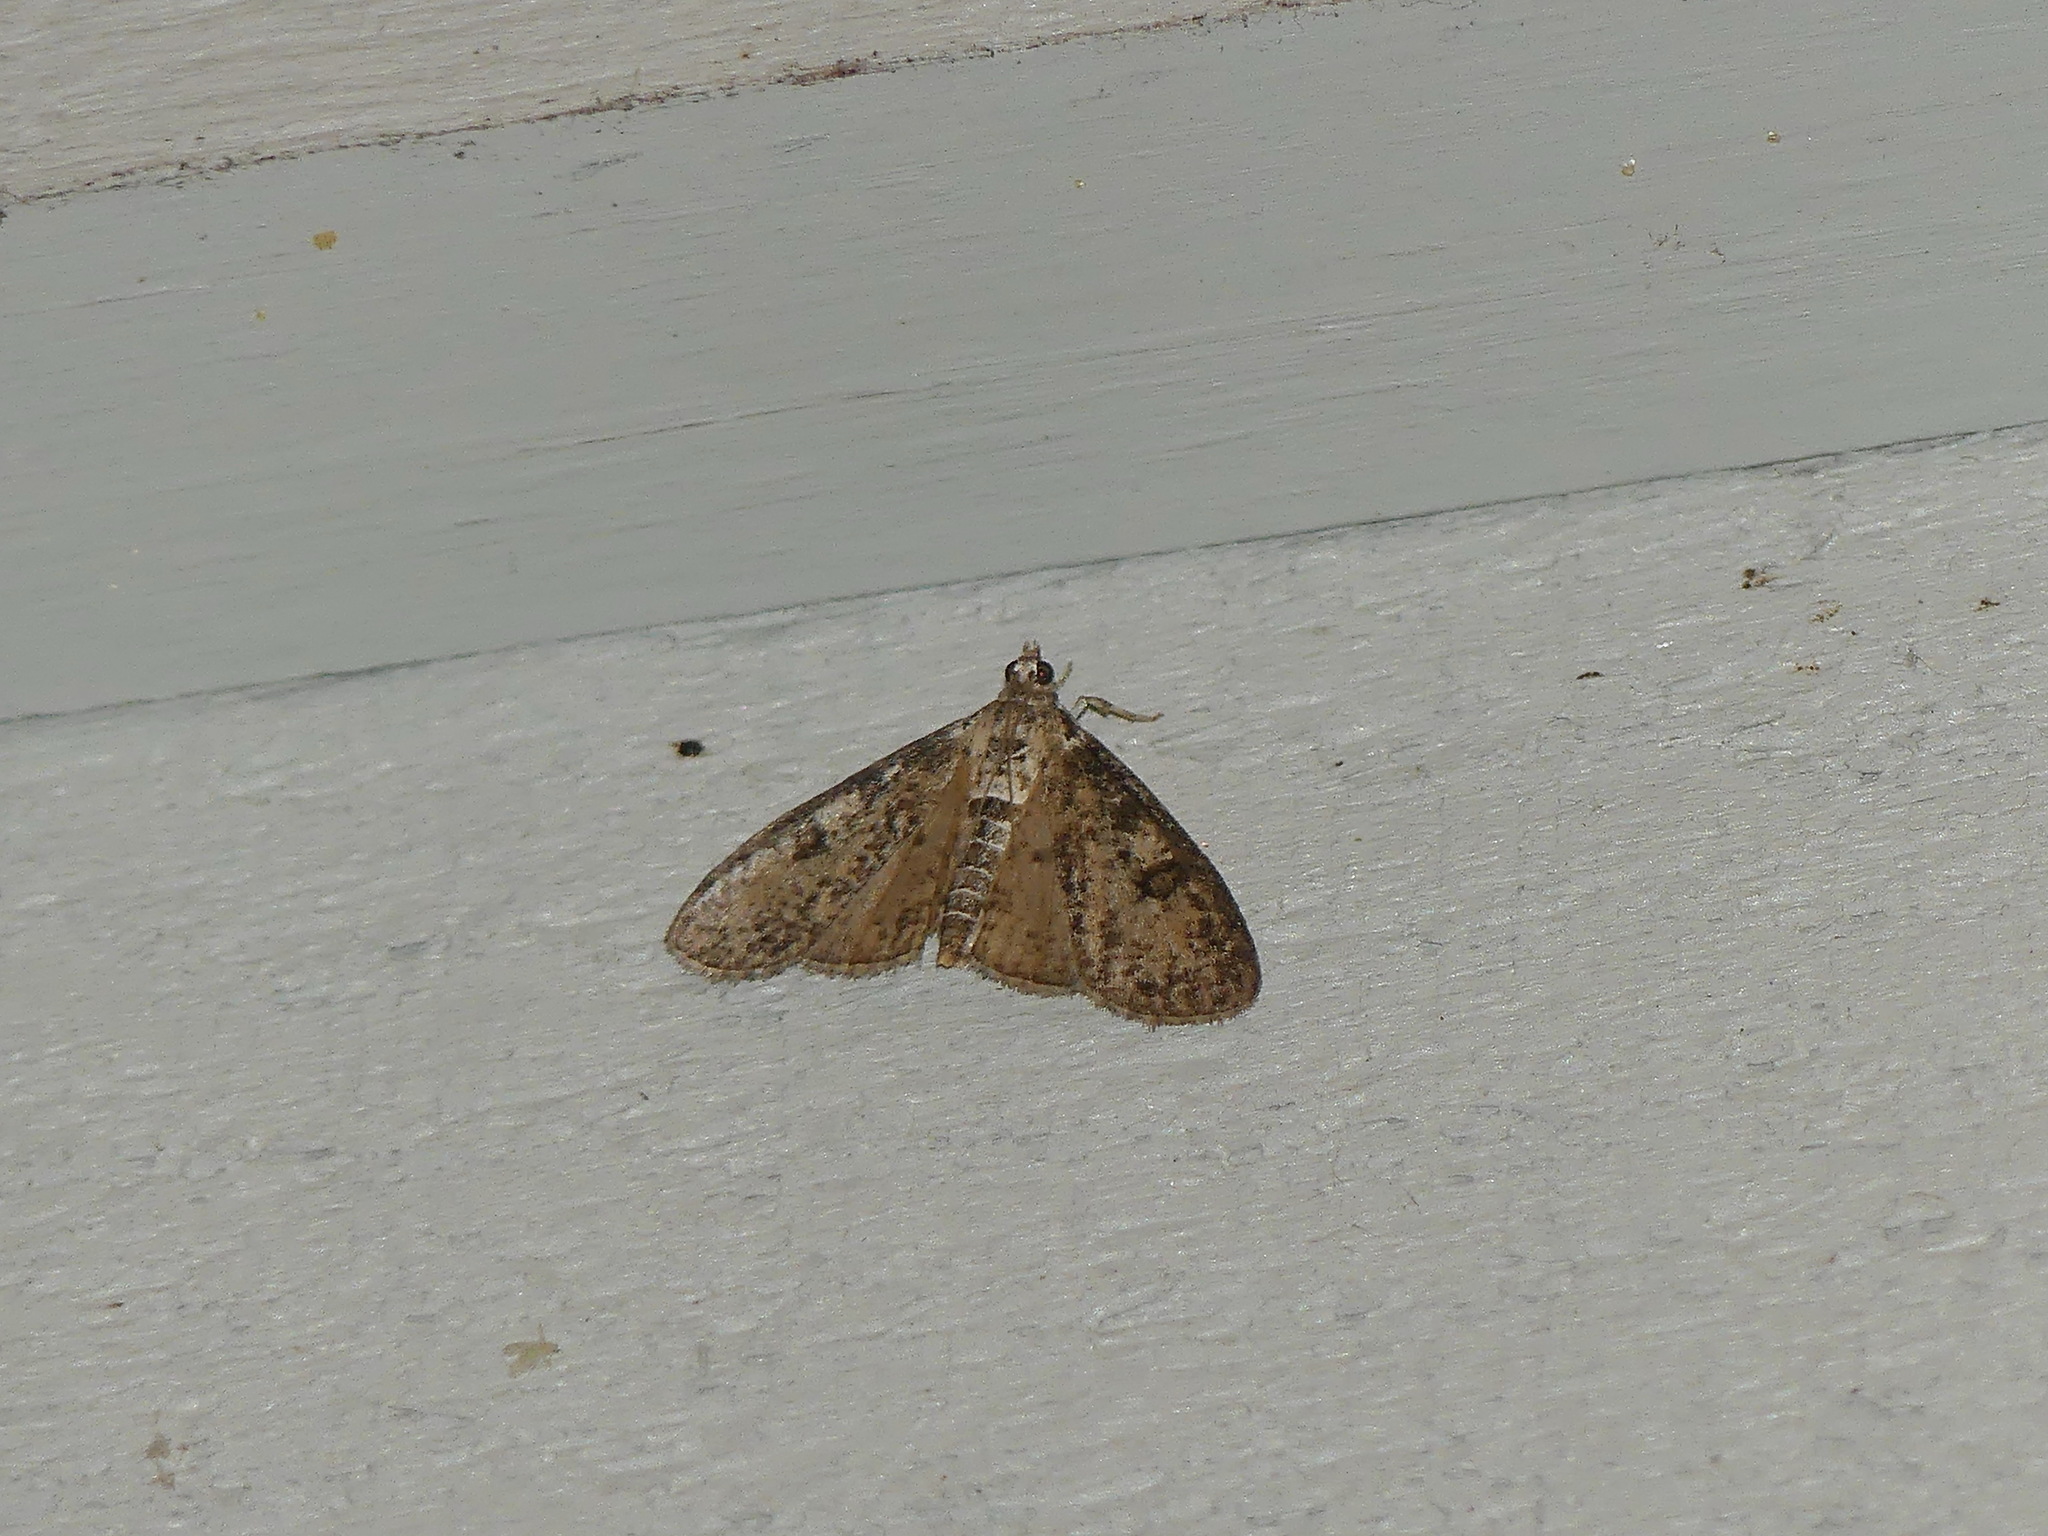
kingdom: Animalia
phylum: Arthropoda
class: Insecta
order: Lepidoptera
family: Crambidae
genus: Palpita
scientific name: Palpita magniferalis
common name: Splendid palpita moth
